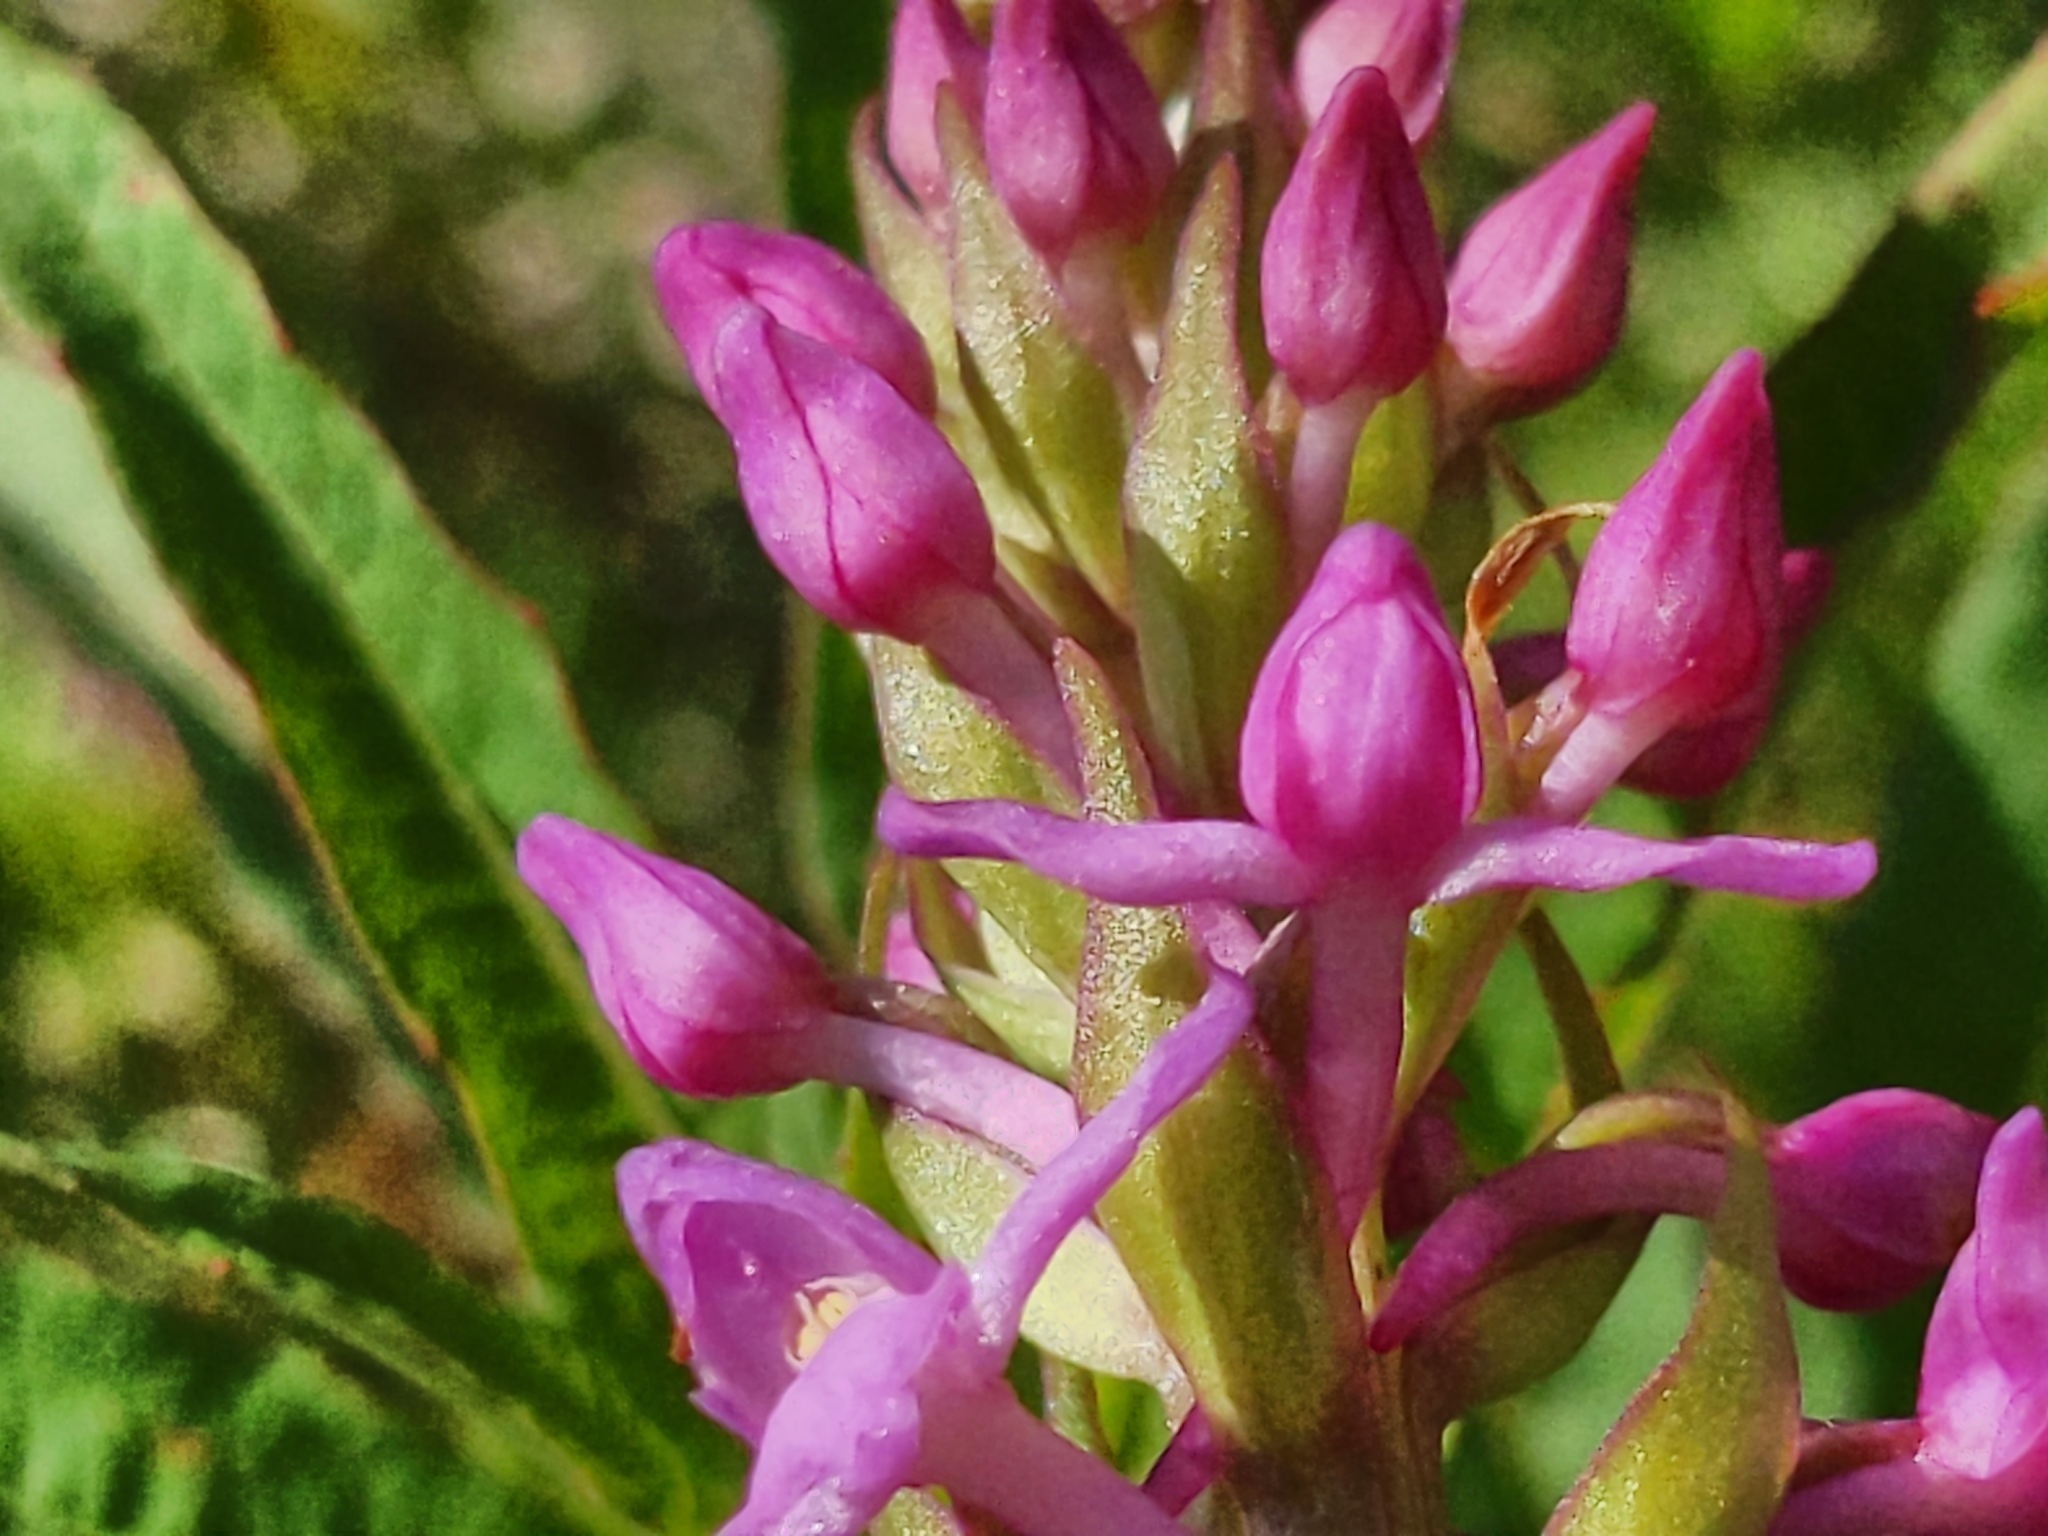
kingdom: Plantae
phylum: Tracheophyta
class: Liliopsida
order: Asparagales
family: Orchidaceae
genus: Gymnadenia
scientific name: Gymnadenia conopsea
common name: Fragrant orchid
